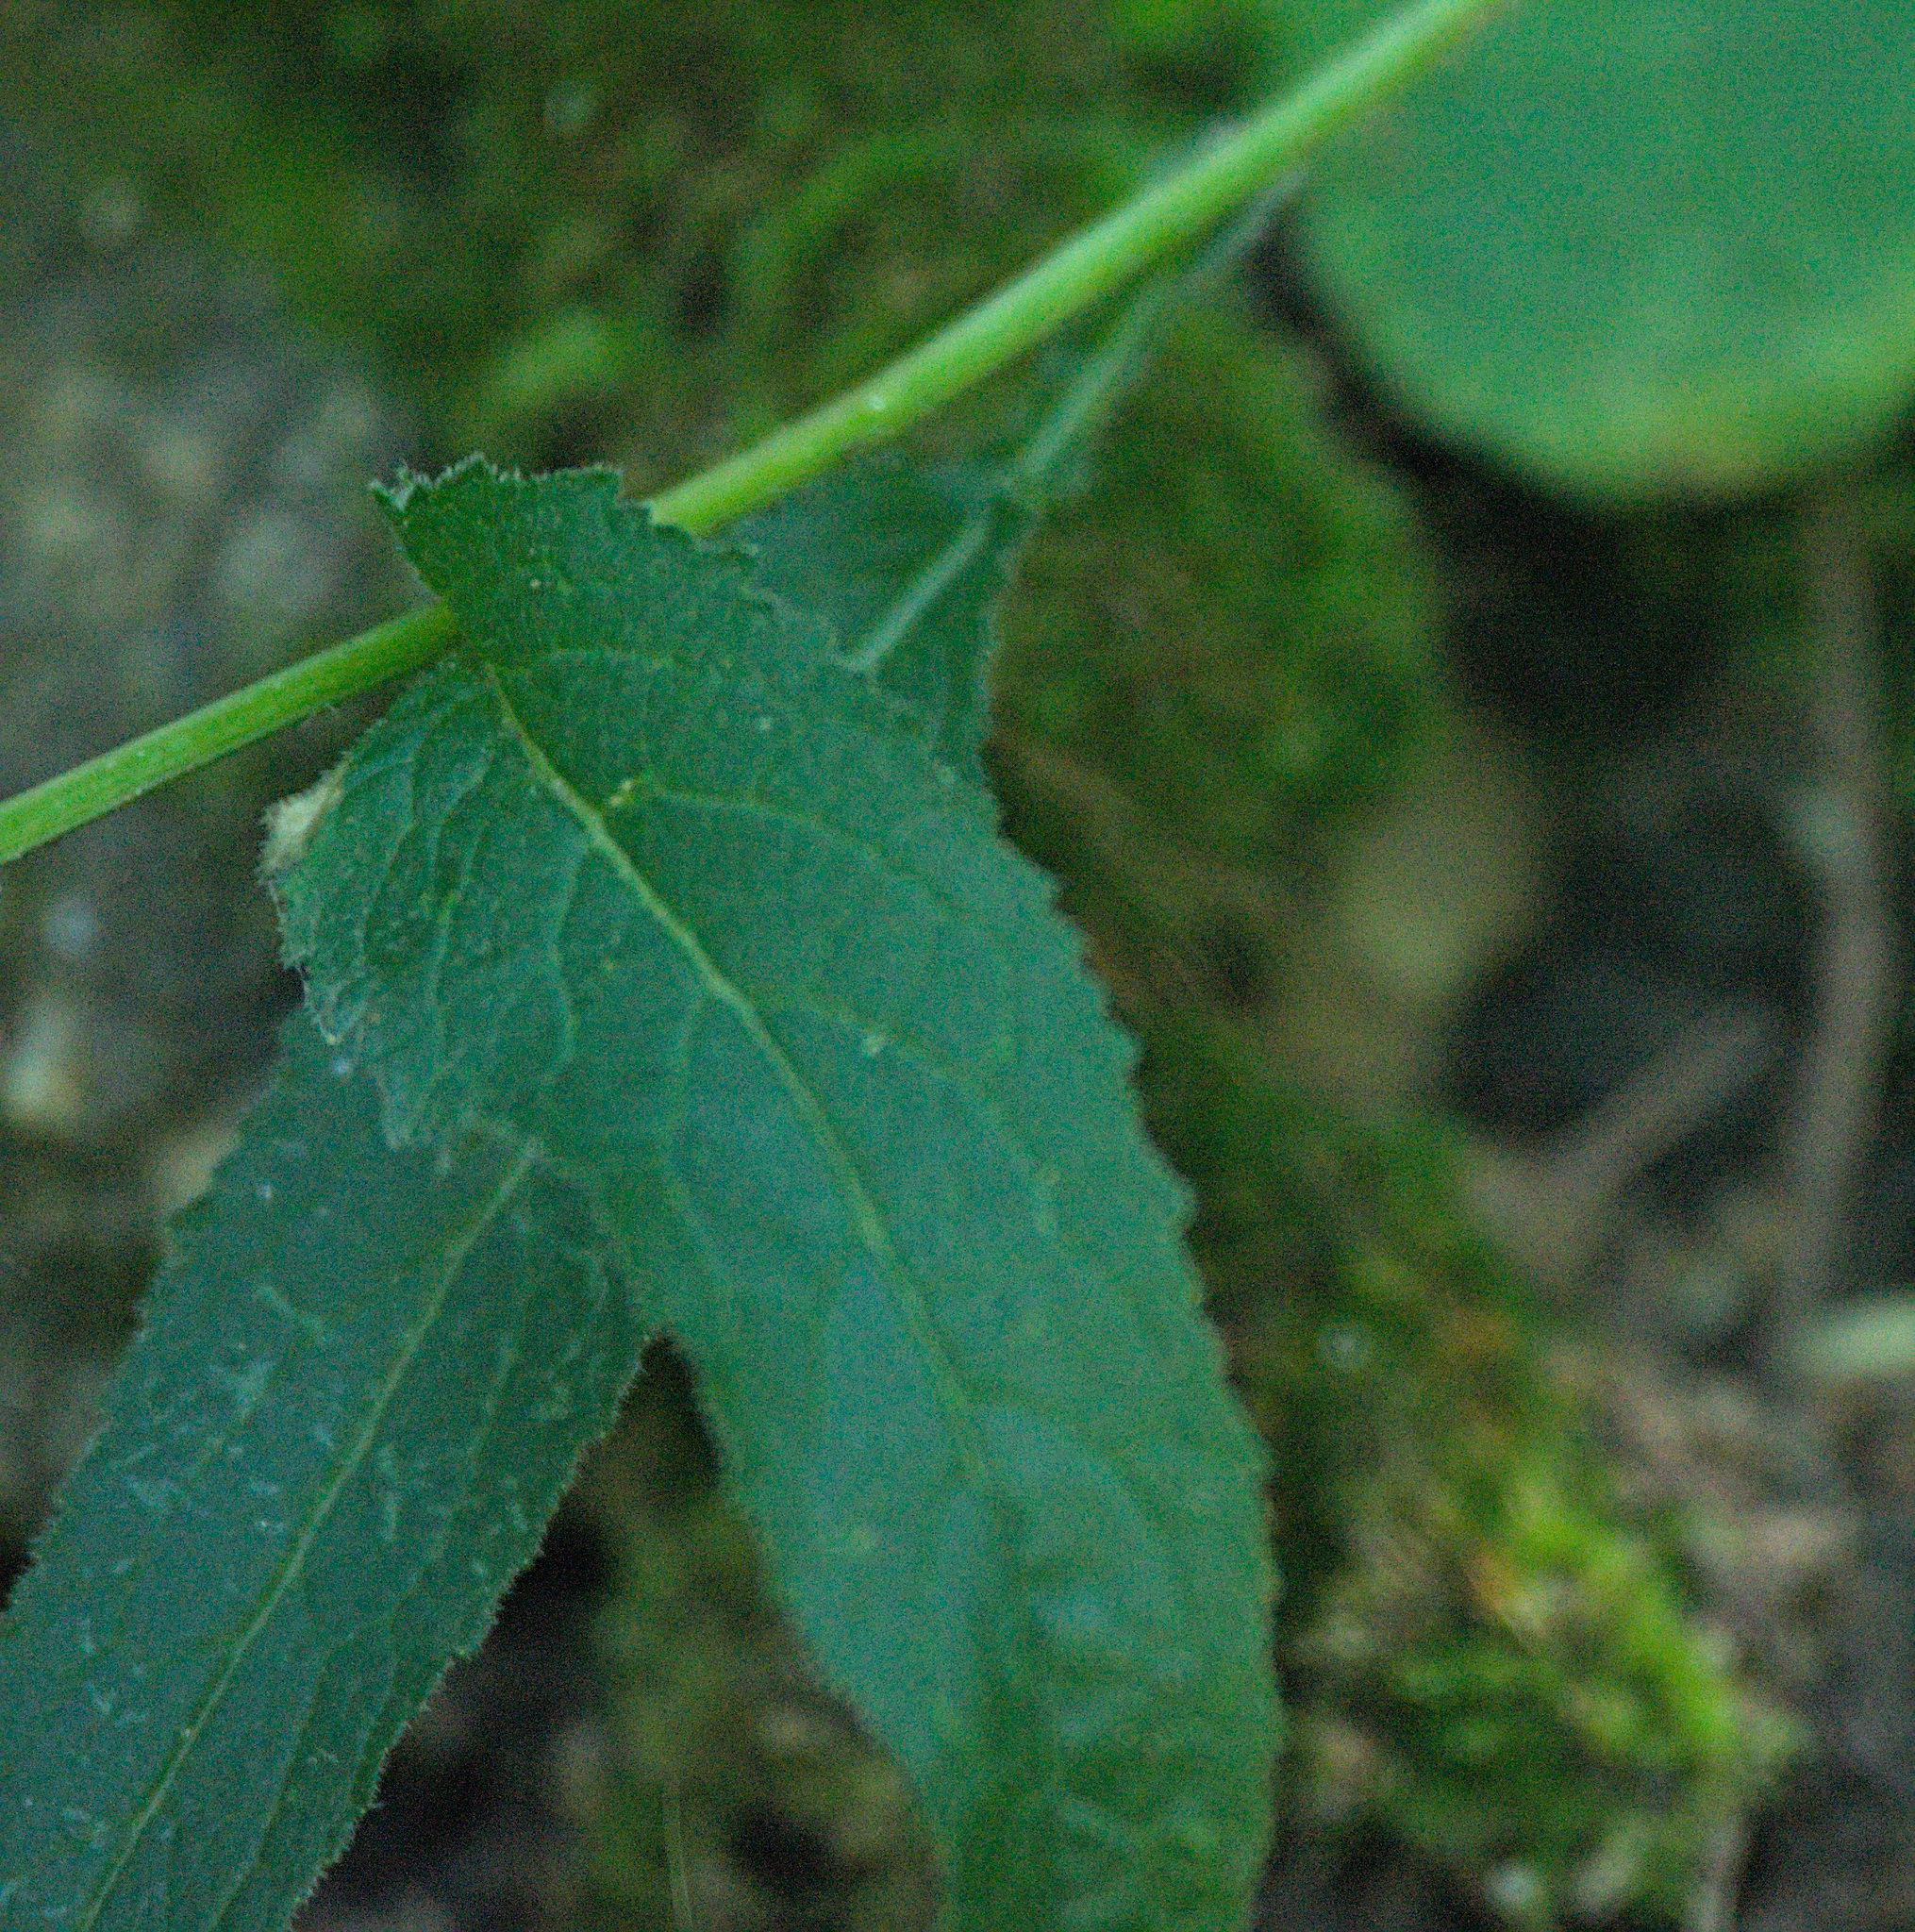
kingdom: Plantae
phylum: Tracheophyta
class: Magnoliopsida
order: Asterales
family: Campanulaceae
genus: Campanula
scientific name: Campanula glomerata
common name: Clustered bellflower
